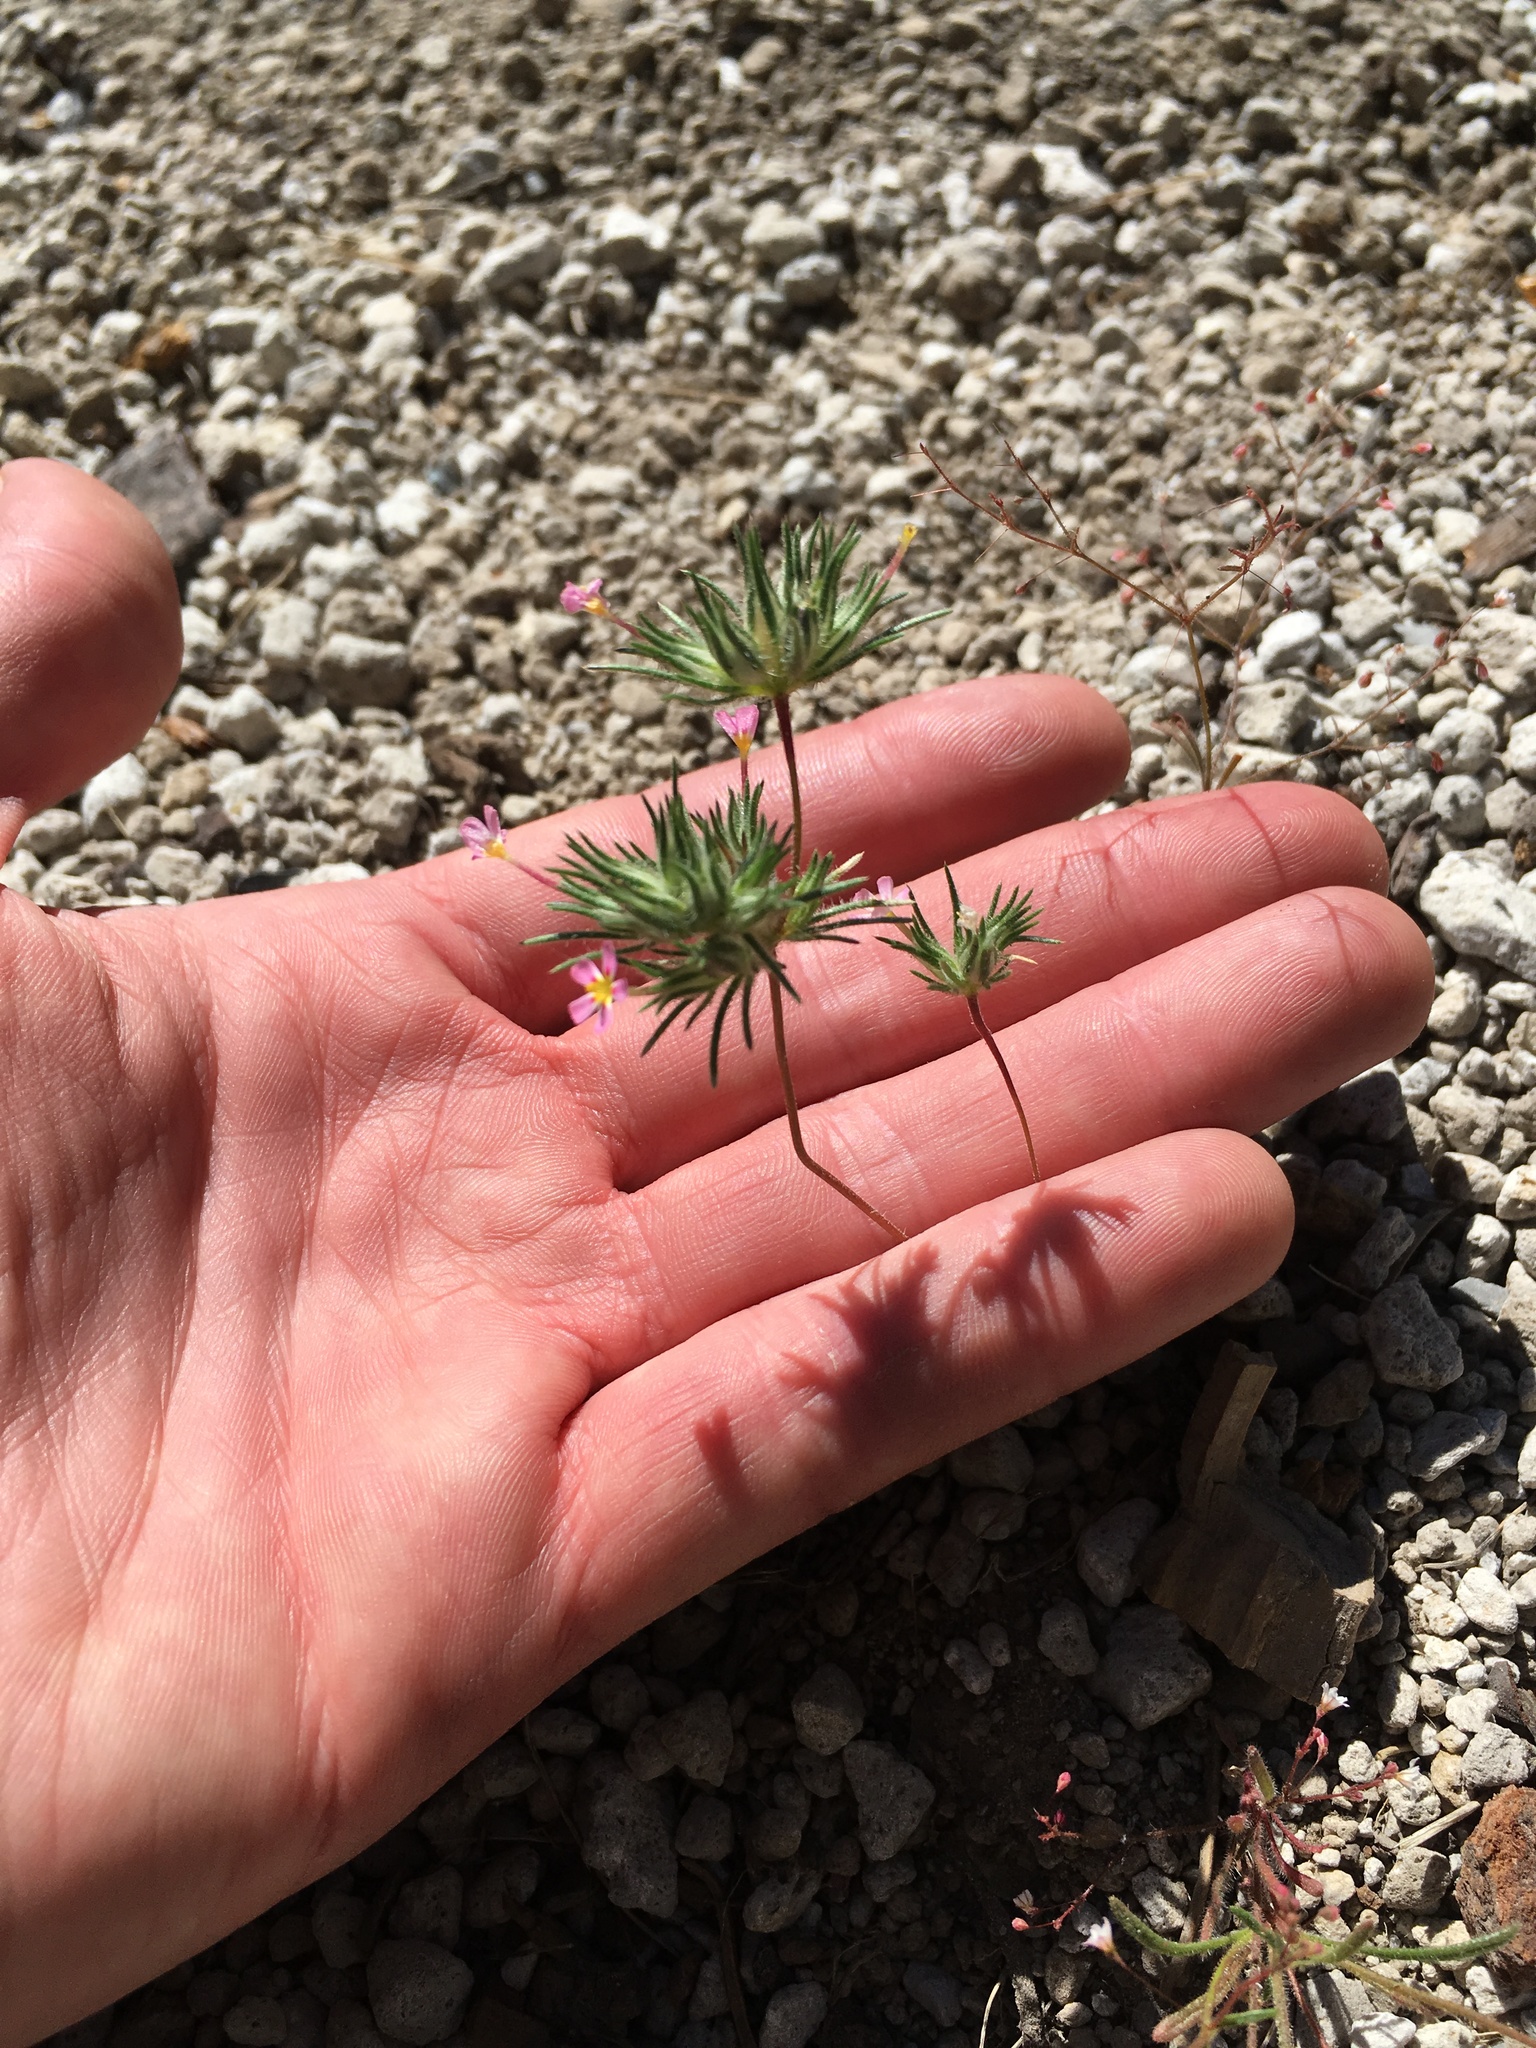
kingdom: Plantae
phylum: Tracheophyta
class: Magnoliopsida
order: Ericales
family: Polemoniaceae
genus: Leptosiphon
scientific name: Leptosiphon ciliatus
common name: Whiskerbrush
